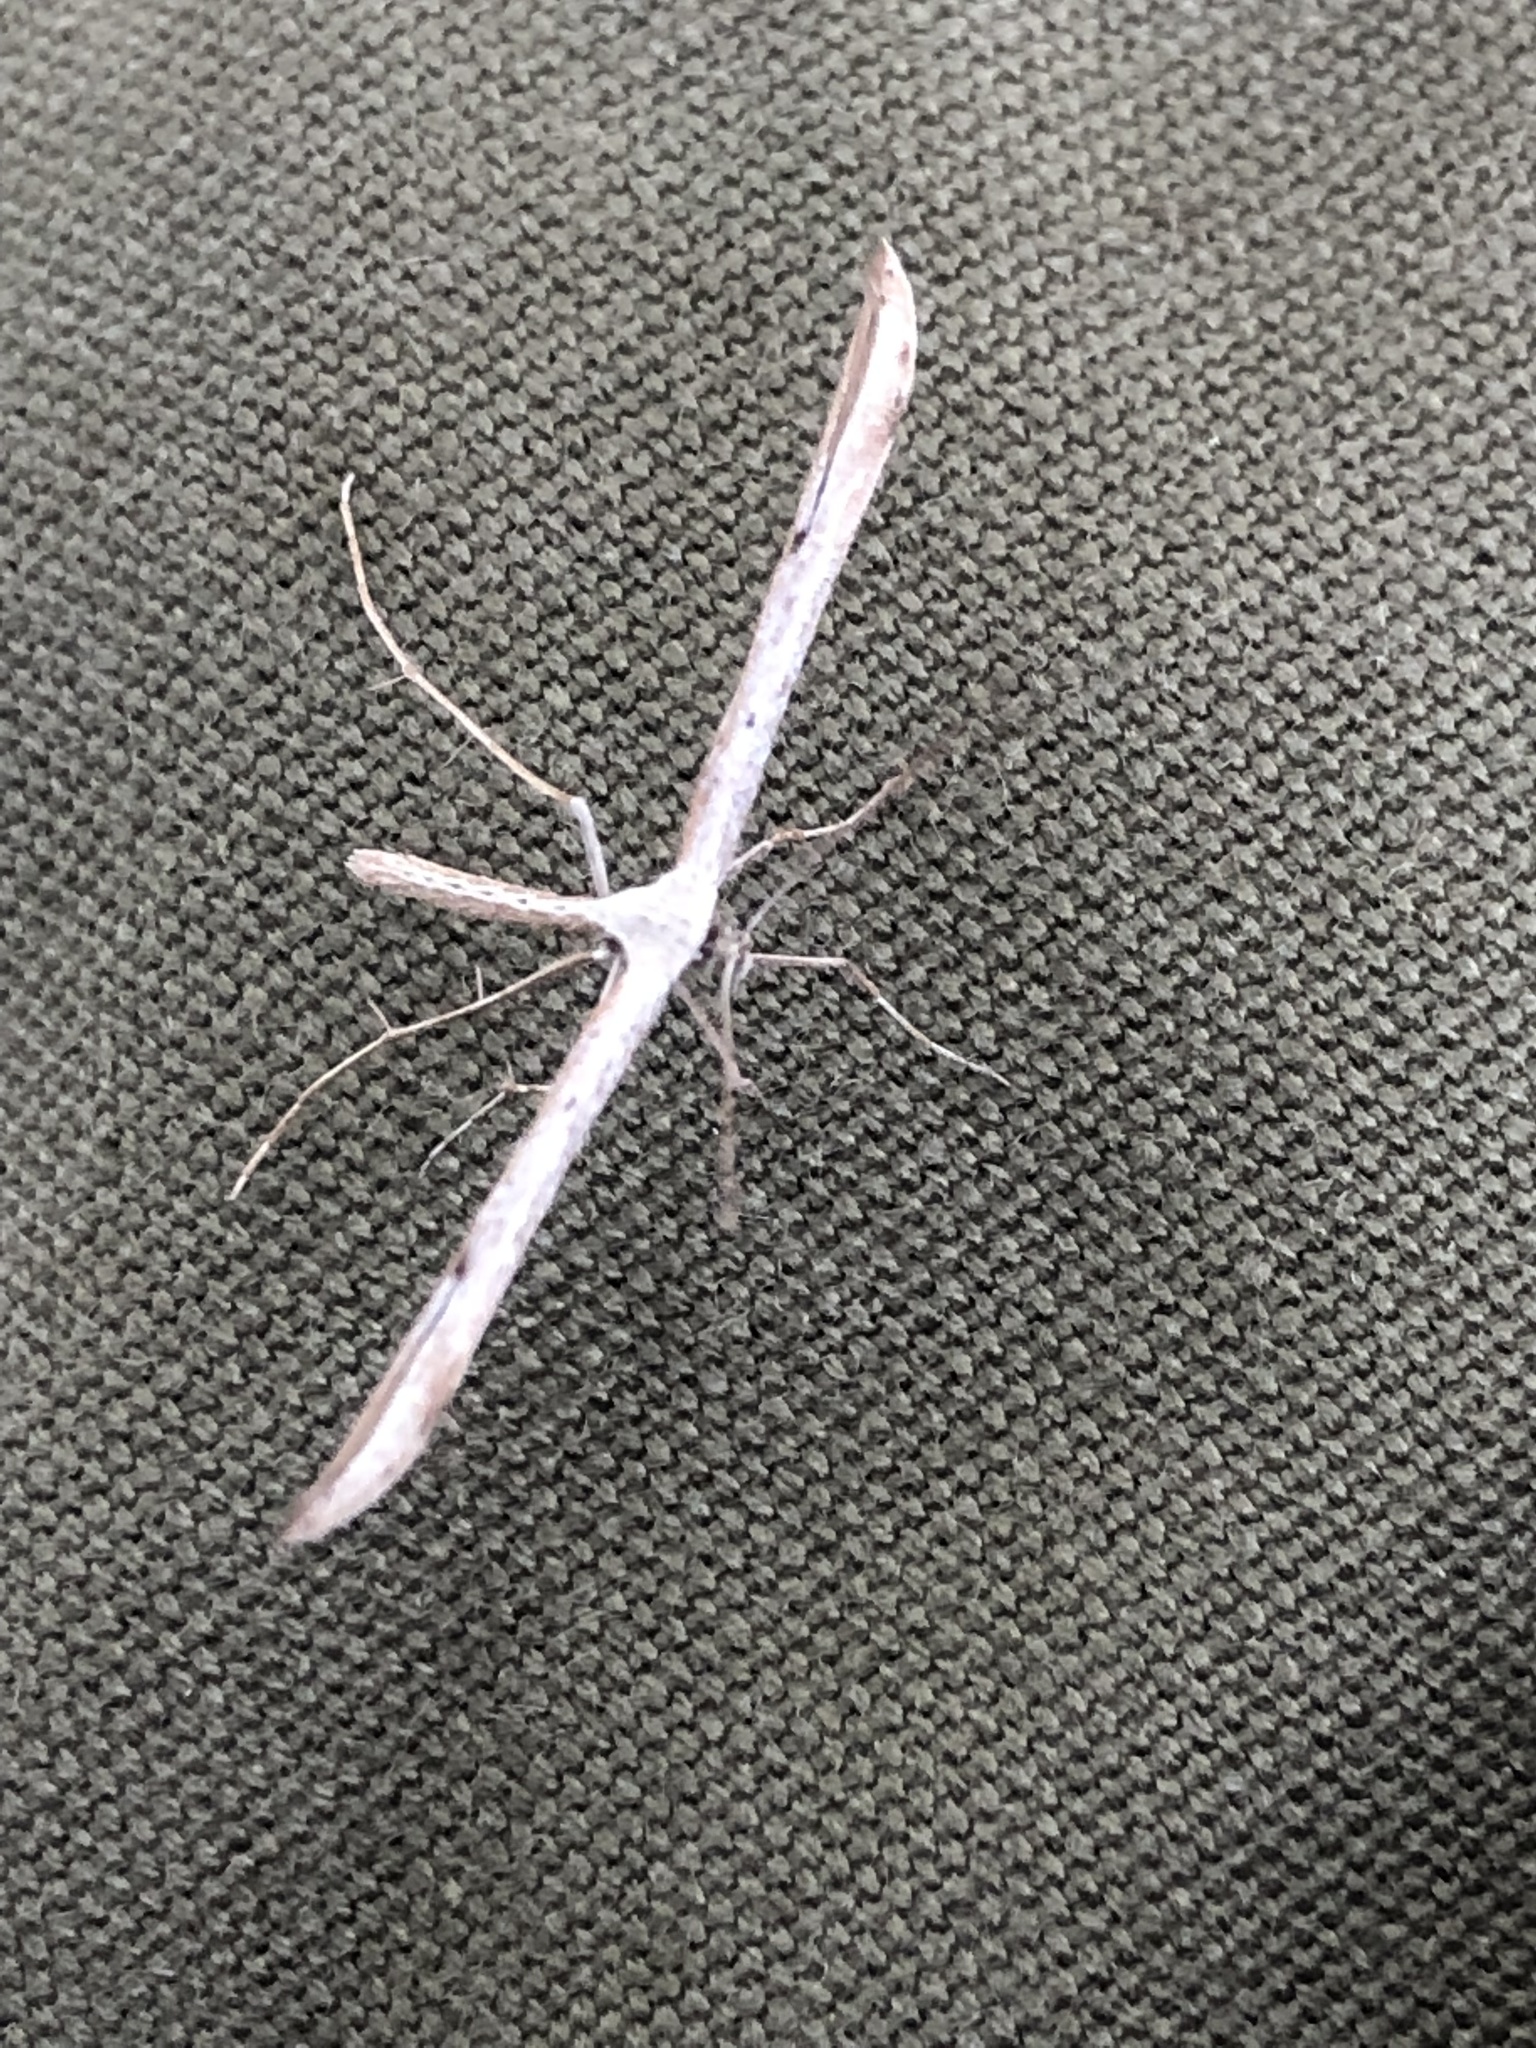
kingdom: Animalia
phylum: Arthropoda
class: Insecta
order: Lepidoptera
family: Pterophoridae
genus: Emmelina
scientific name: Emmelina monodactyla
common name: Common plume
